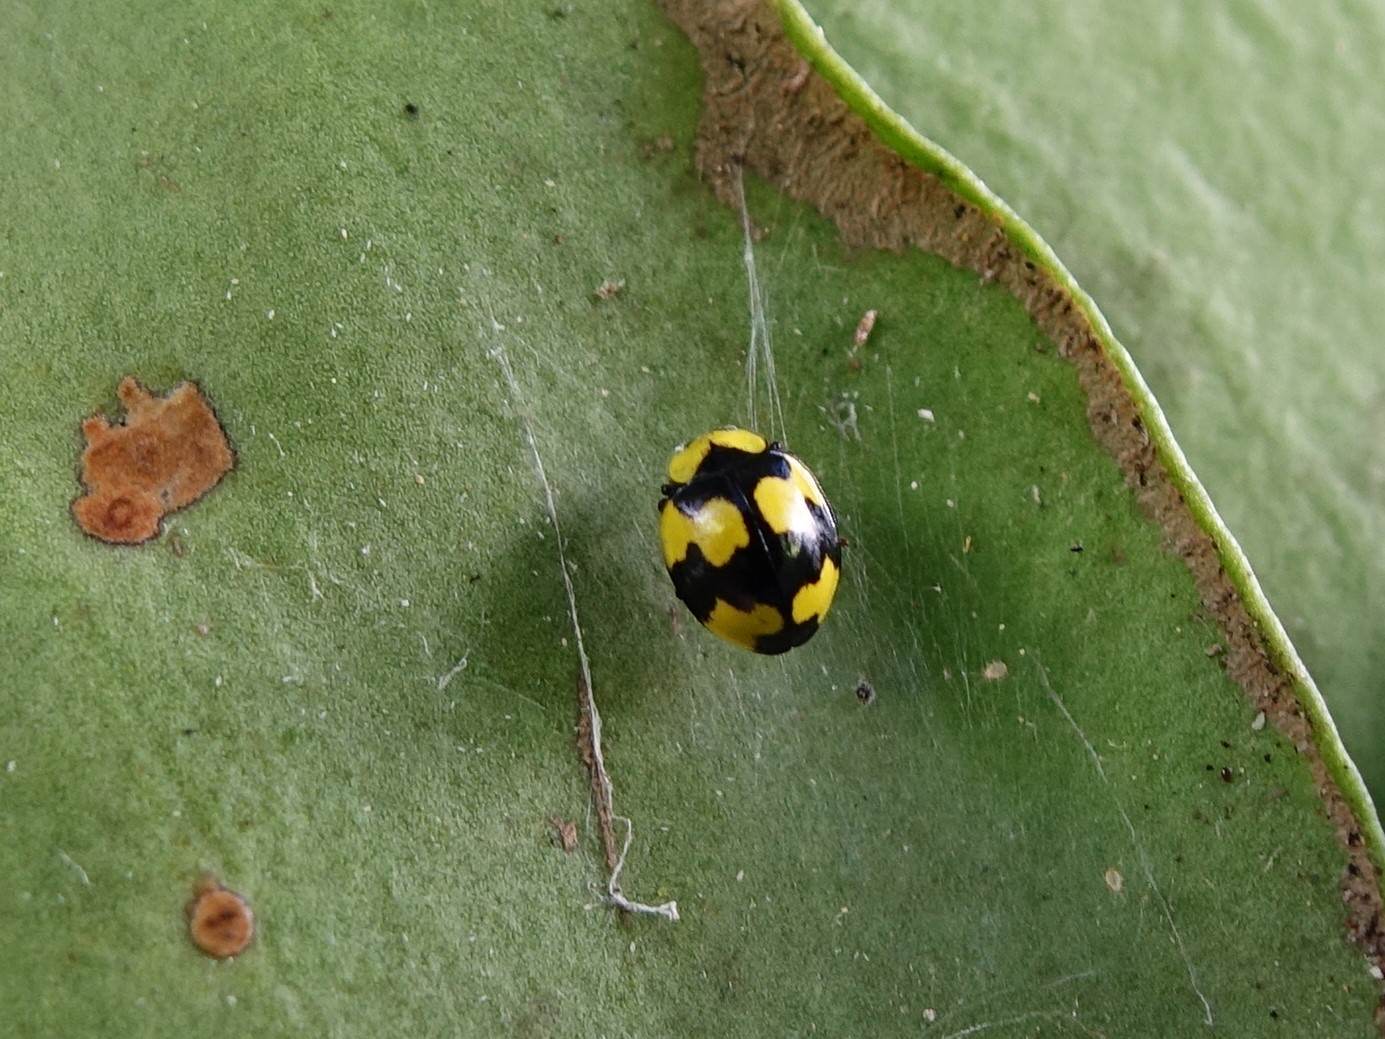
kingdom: Animalia
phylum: Arthropoda
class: Insecta
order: Coleoptera
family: Coccinellidae
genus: Illeis
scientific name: Illeis galbula
